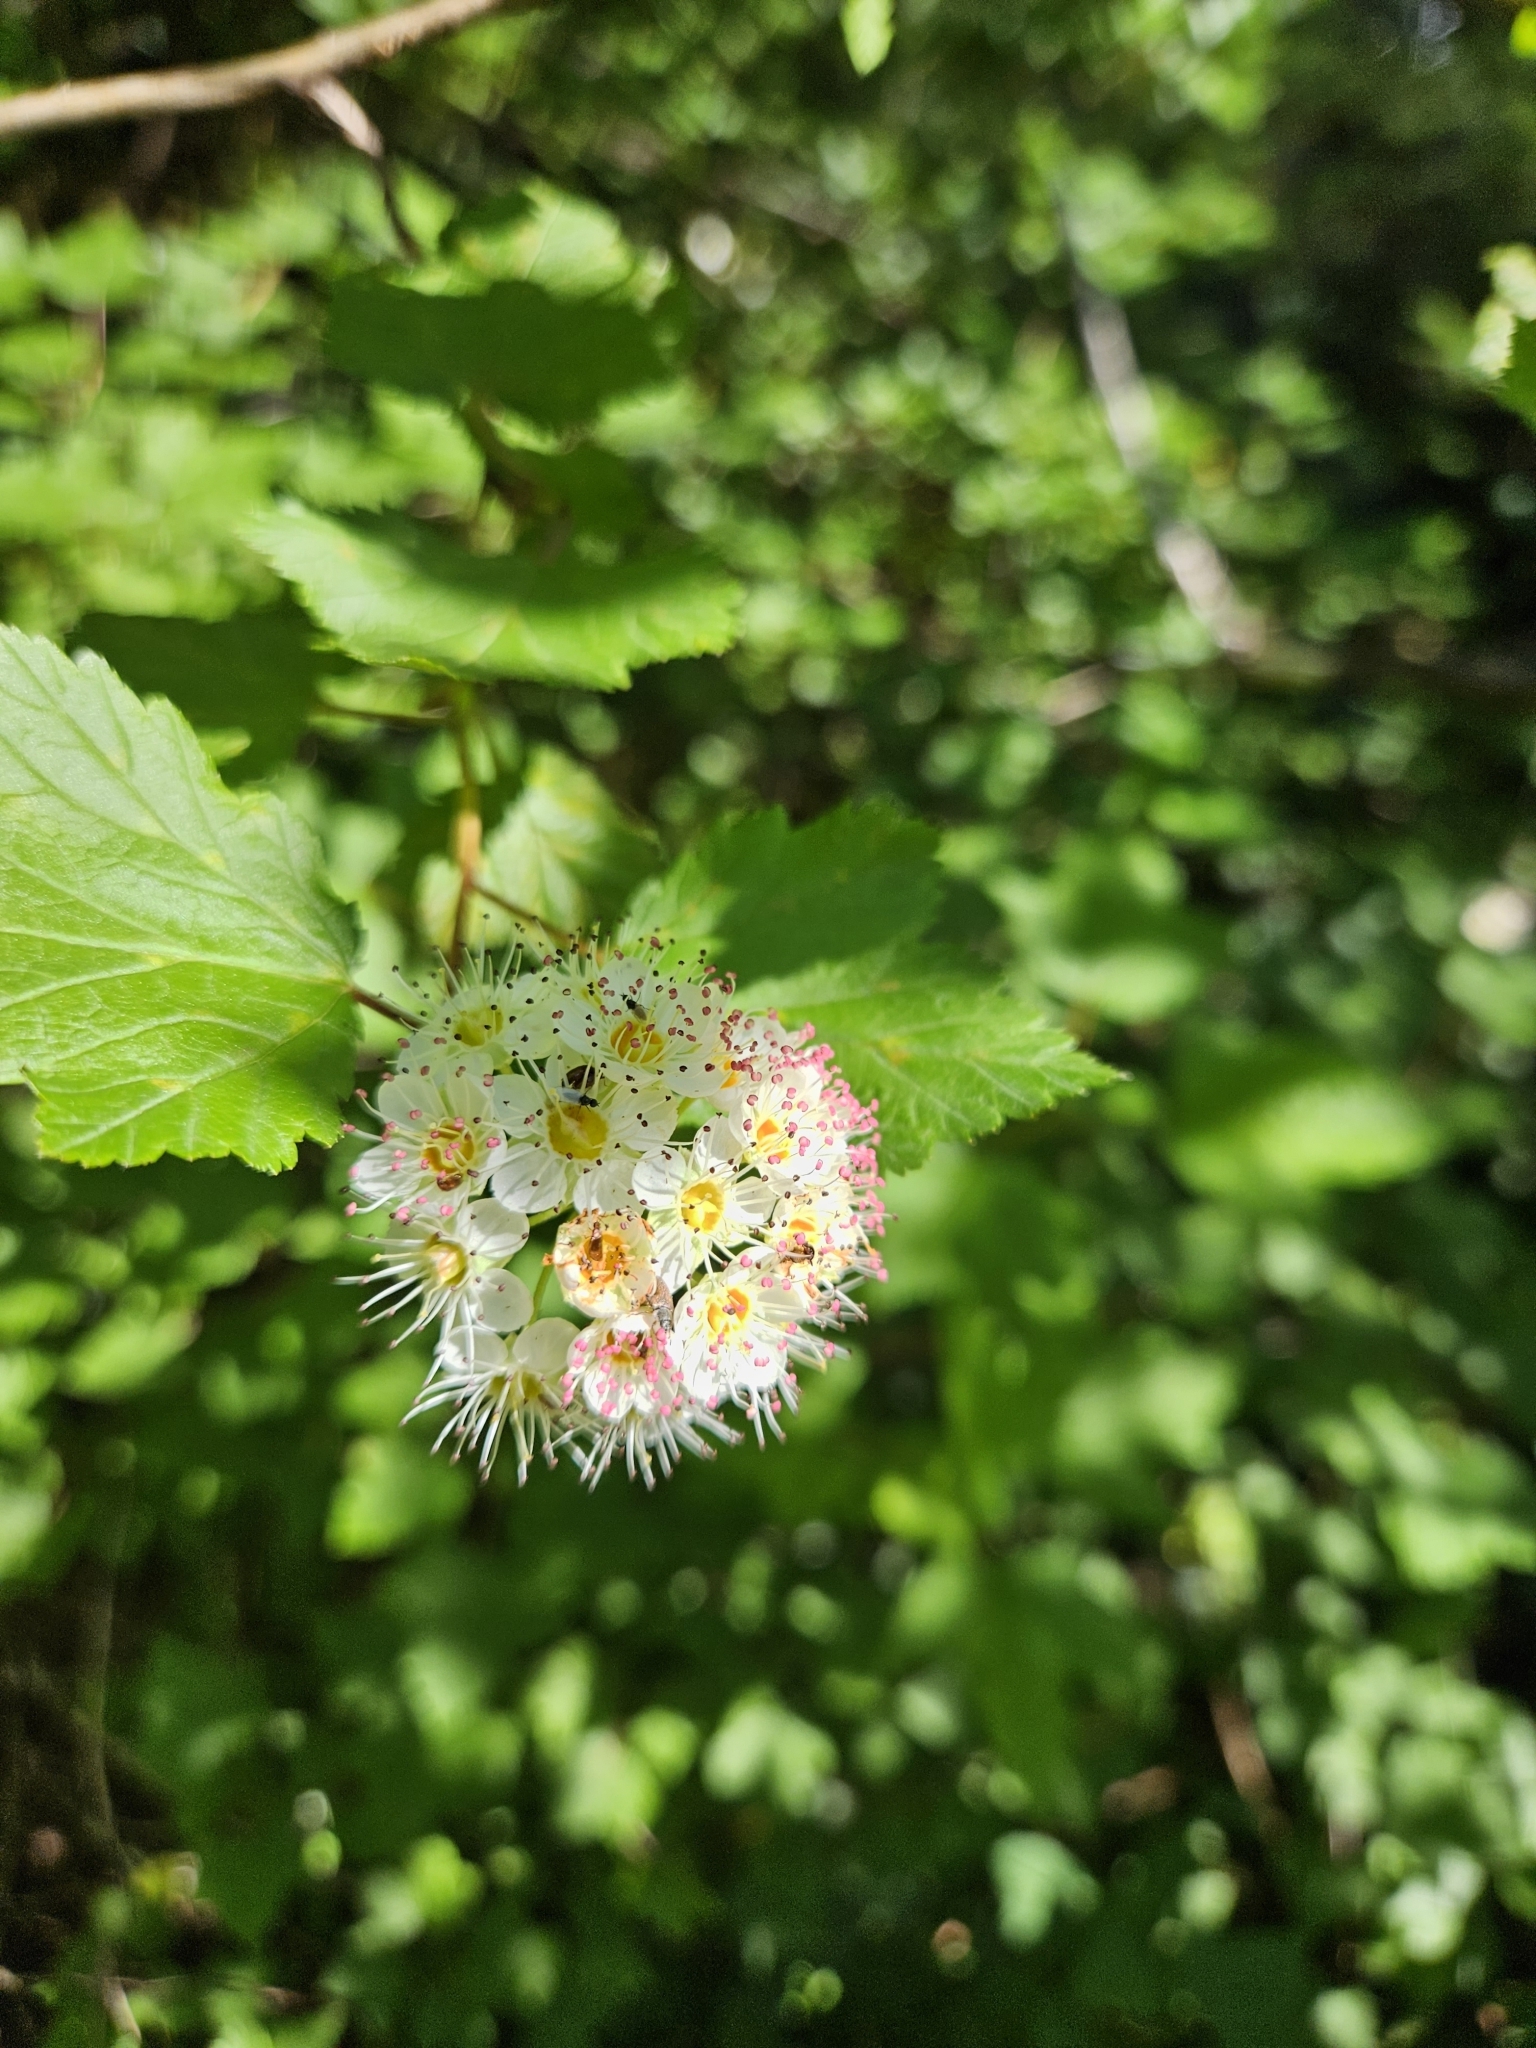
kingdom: Plantae
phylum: Tracheophyta
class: Magnoliopsida
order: Rosales
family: Rosaceae
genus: Physocarpus
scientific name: Physocarpus capitatus
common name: Pacific ninebark
